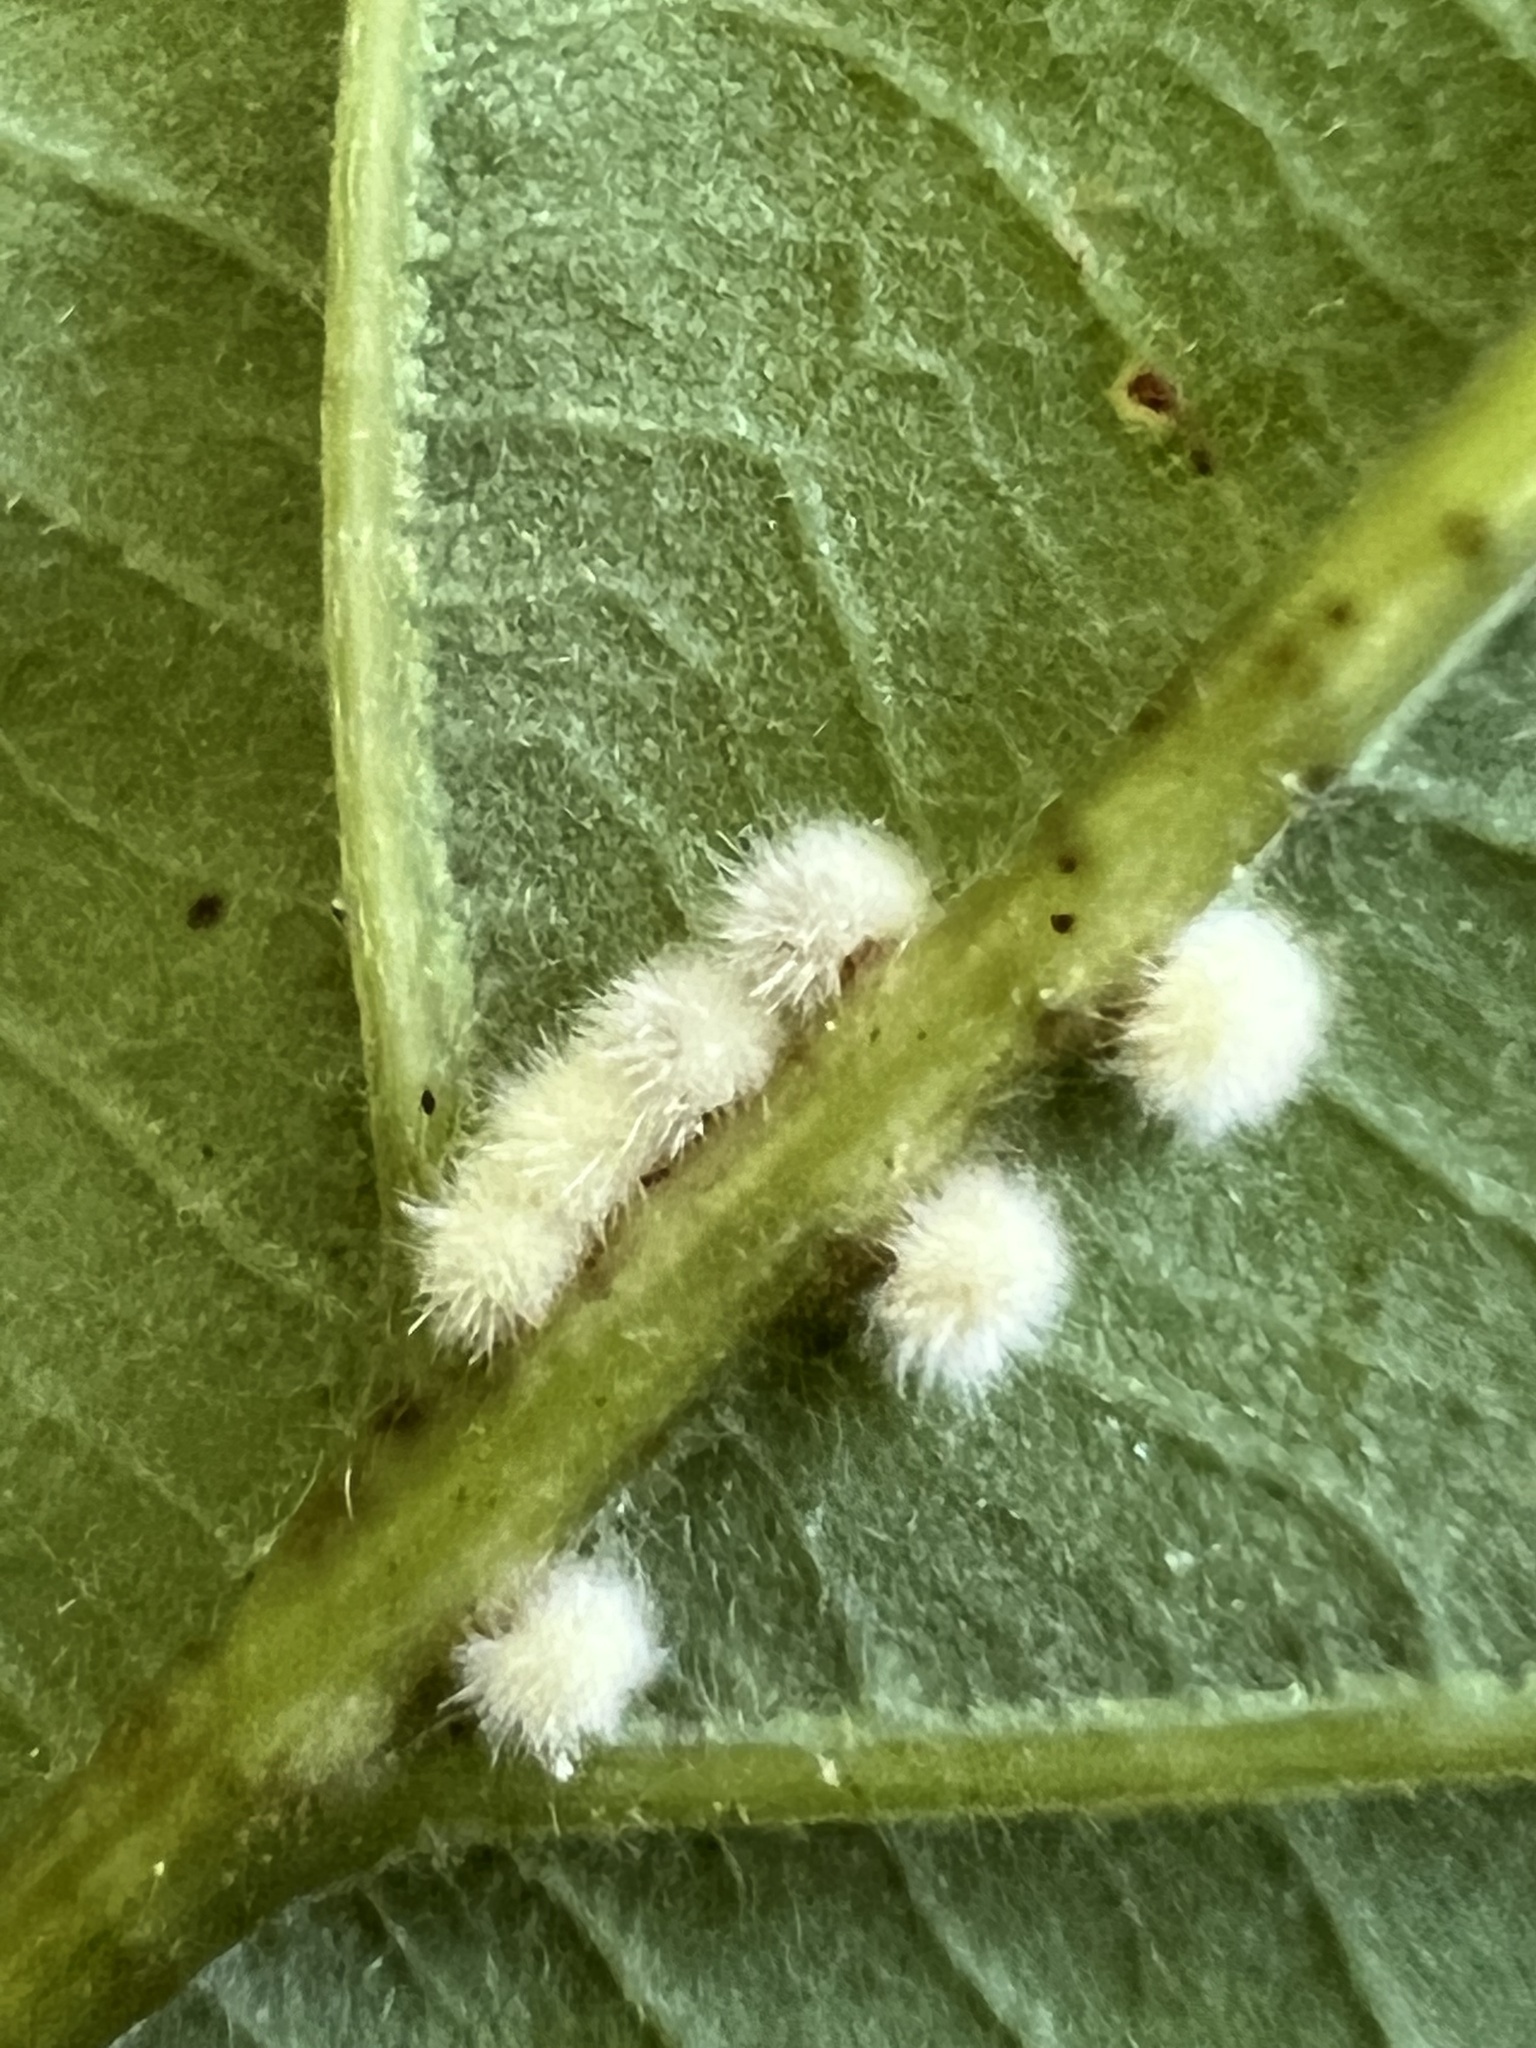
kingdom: Animalia
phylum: Arthropoda
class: Insecta
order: Hymenoptera
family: Cynipidae
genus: Andricus
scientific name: Andricus
